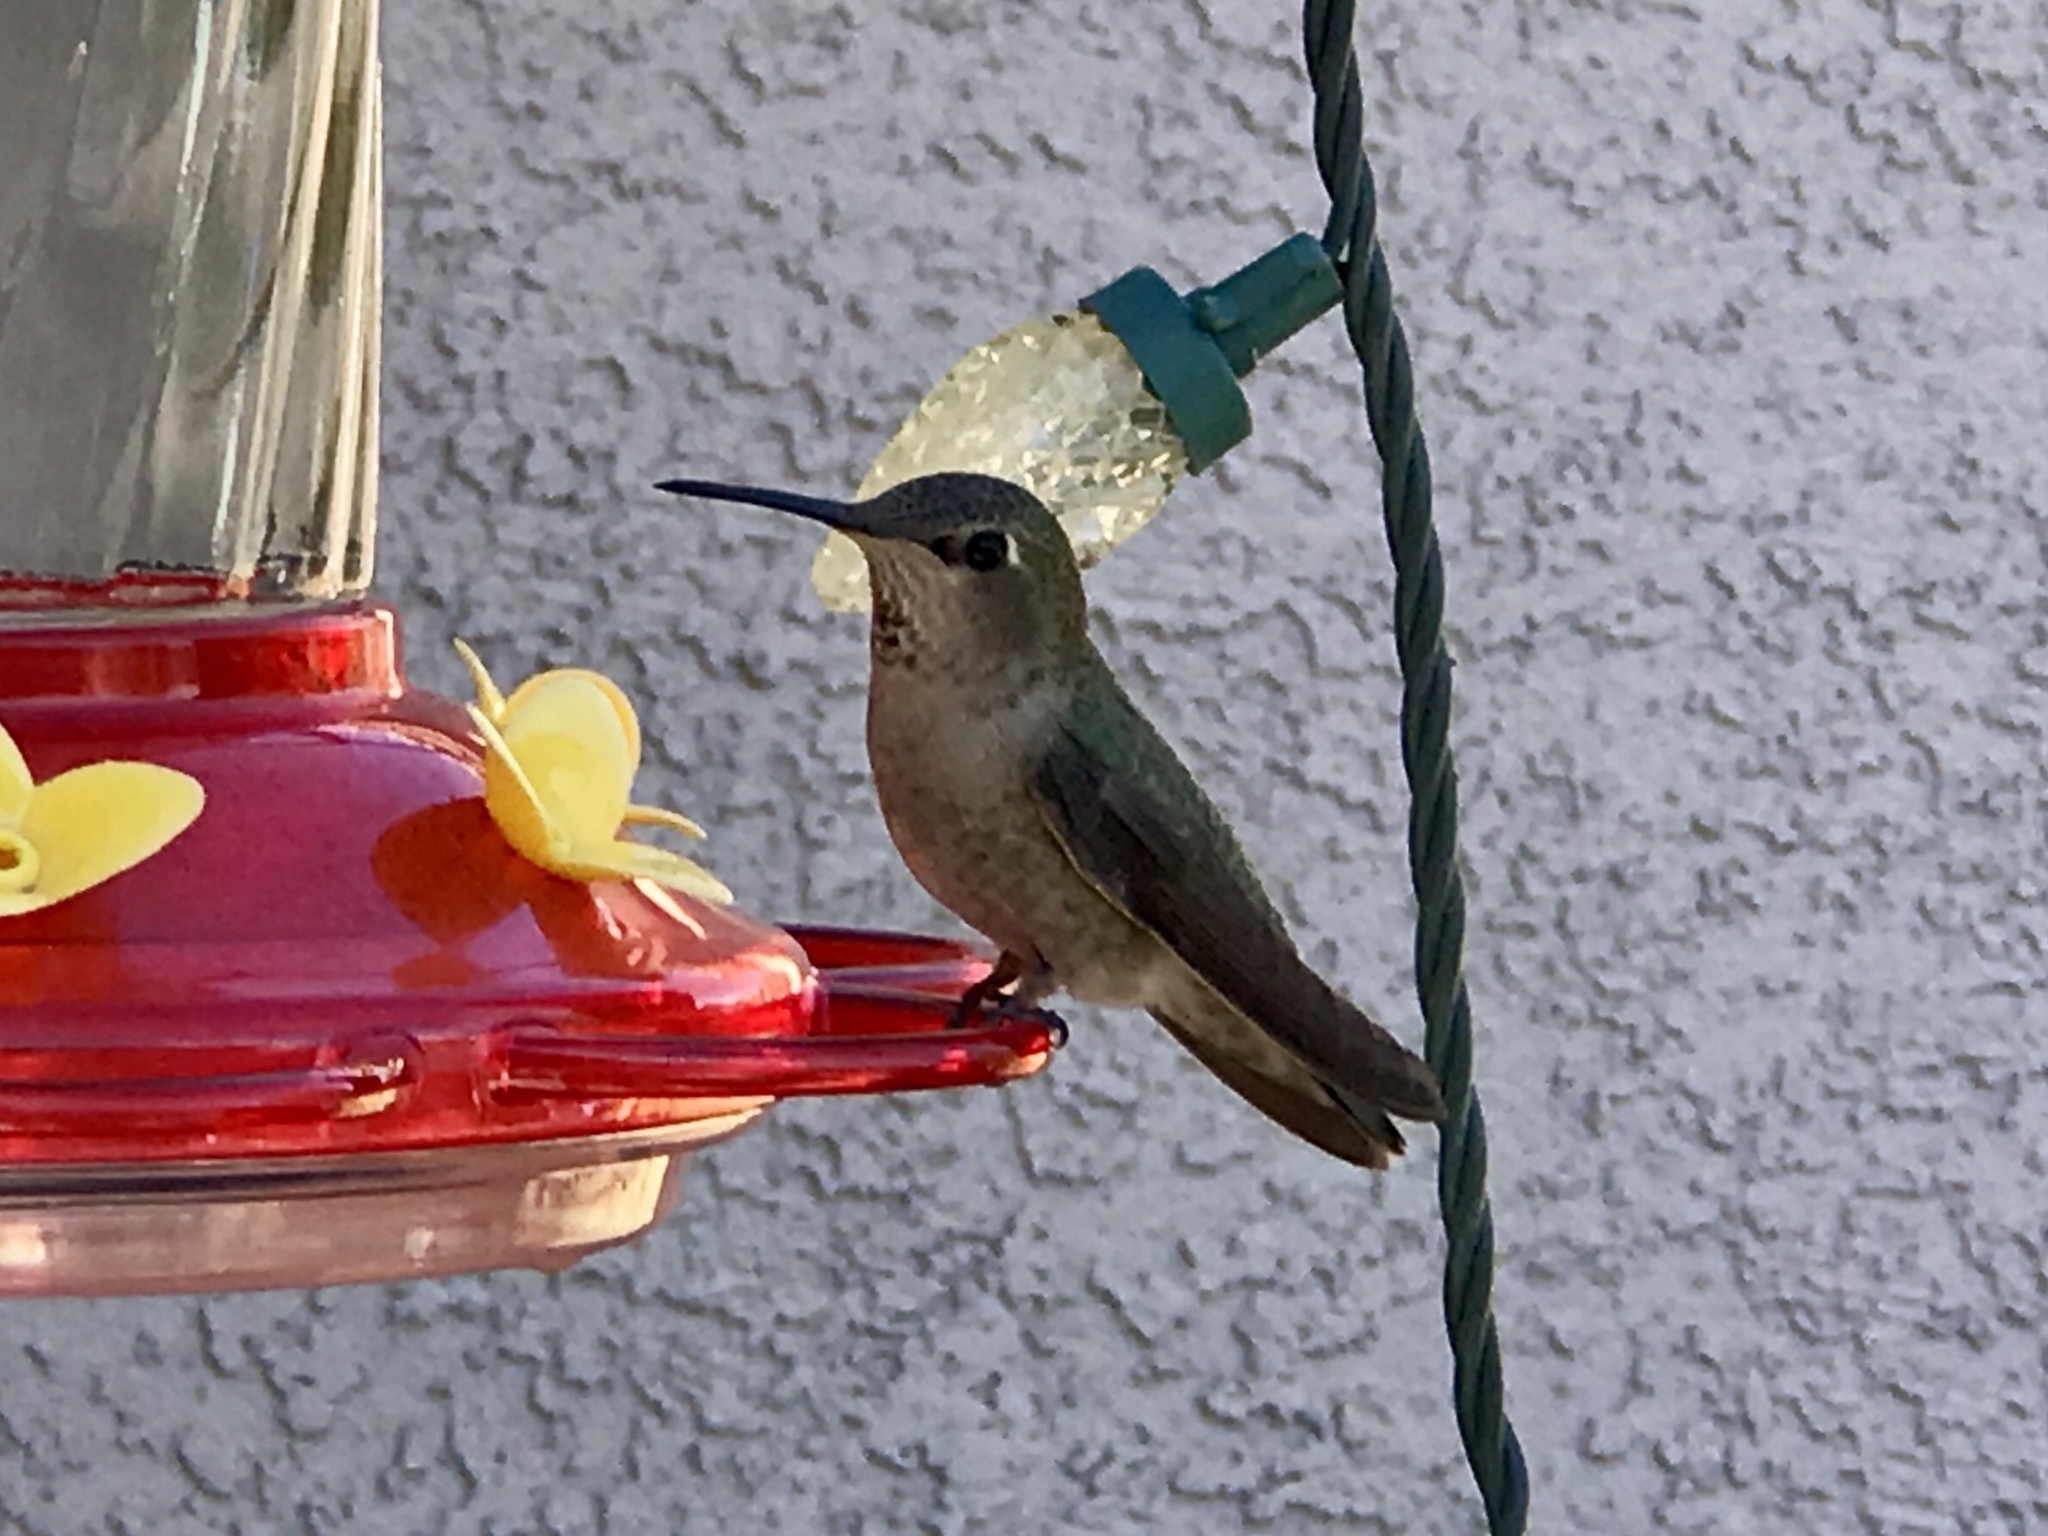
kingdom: Animalia
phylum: Chordata
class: Aves
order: Apodiformes
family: Trochilidae
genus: Calypte
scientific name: Calypte anna
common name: Anna's hummingbird
